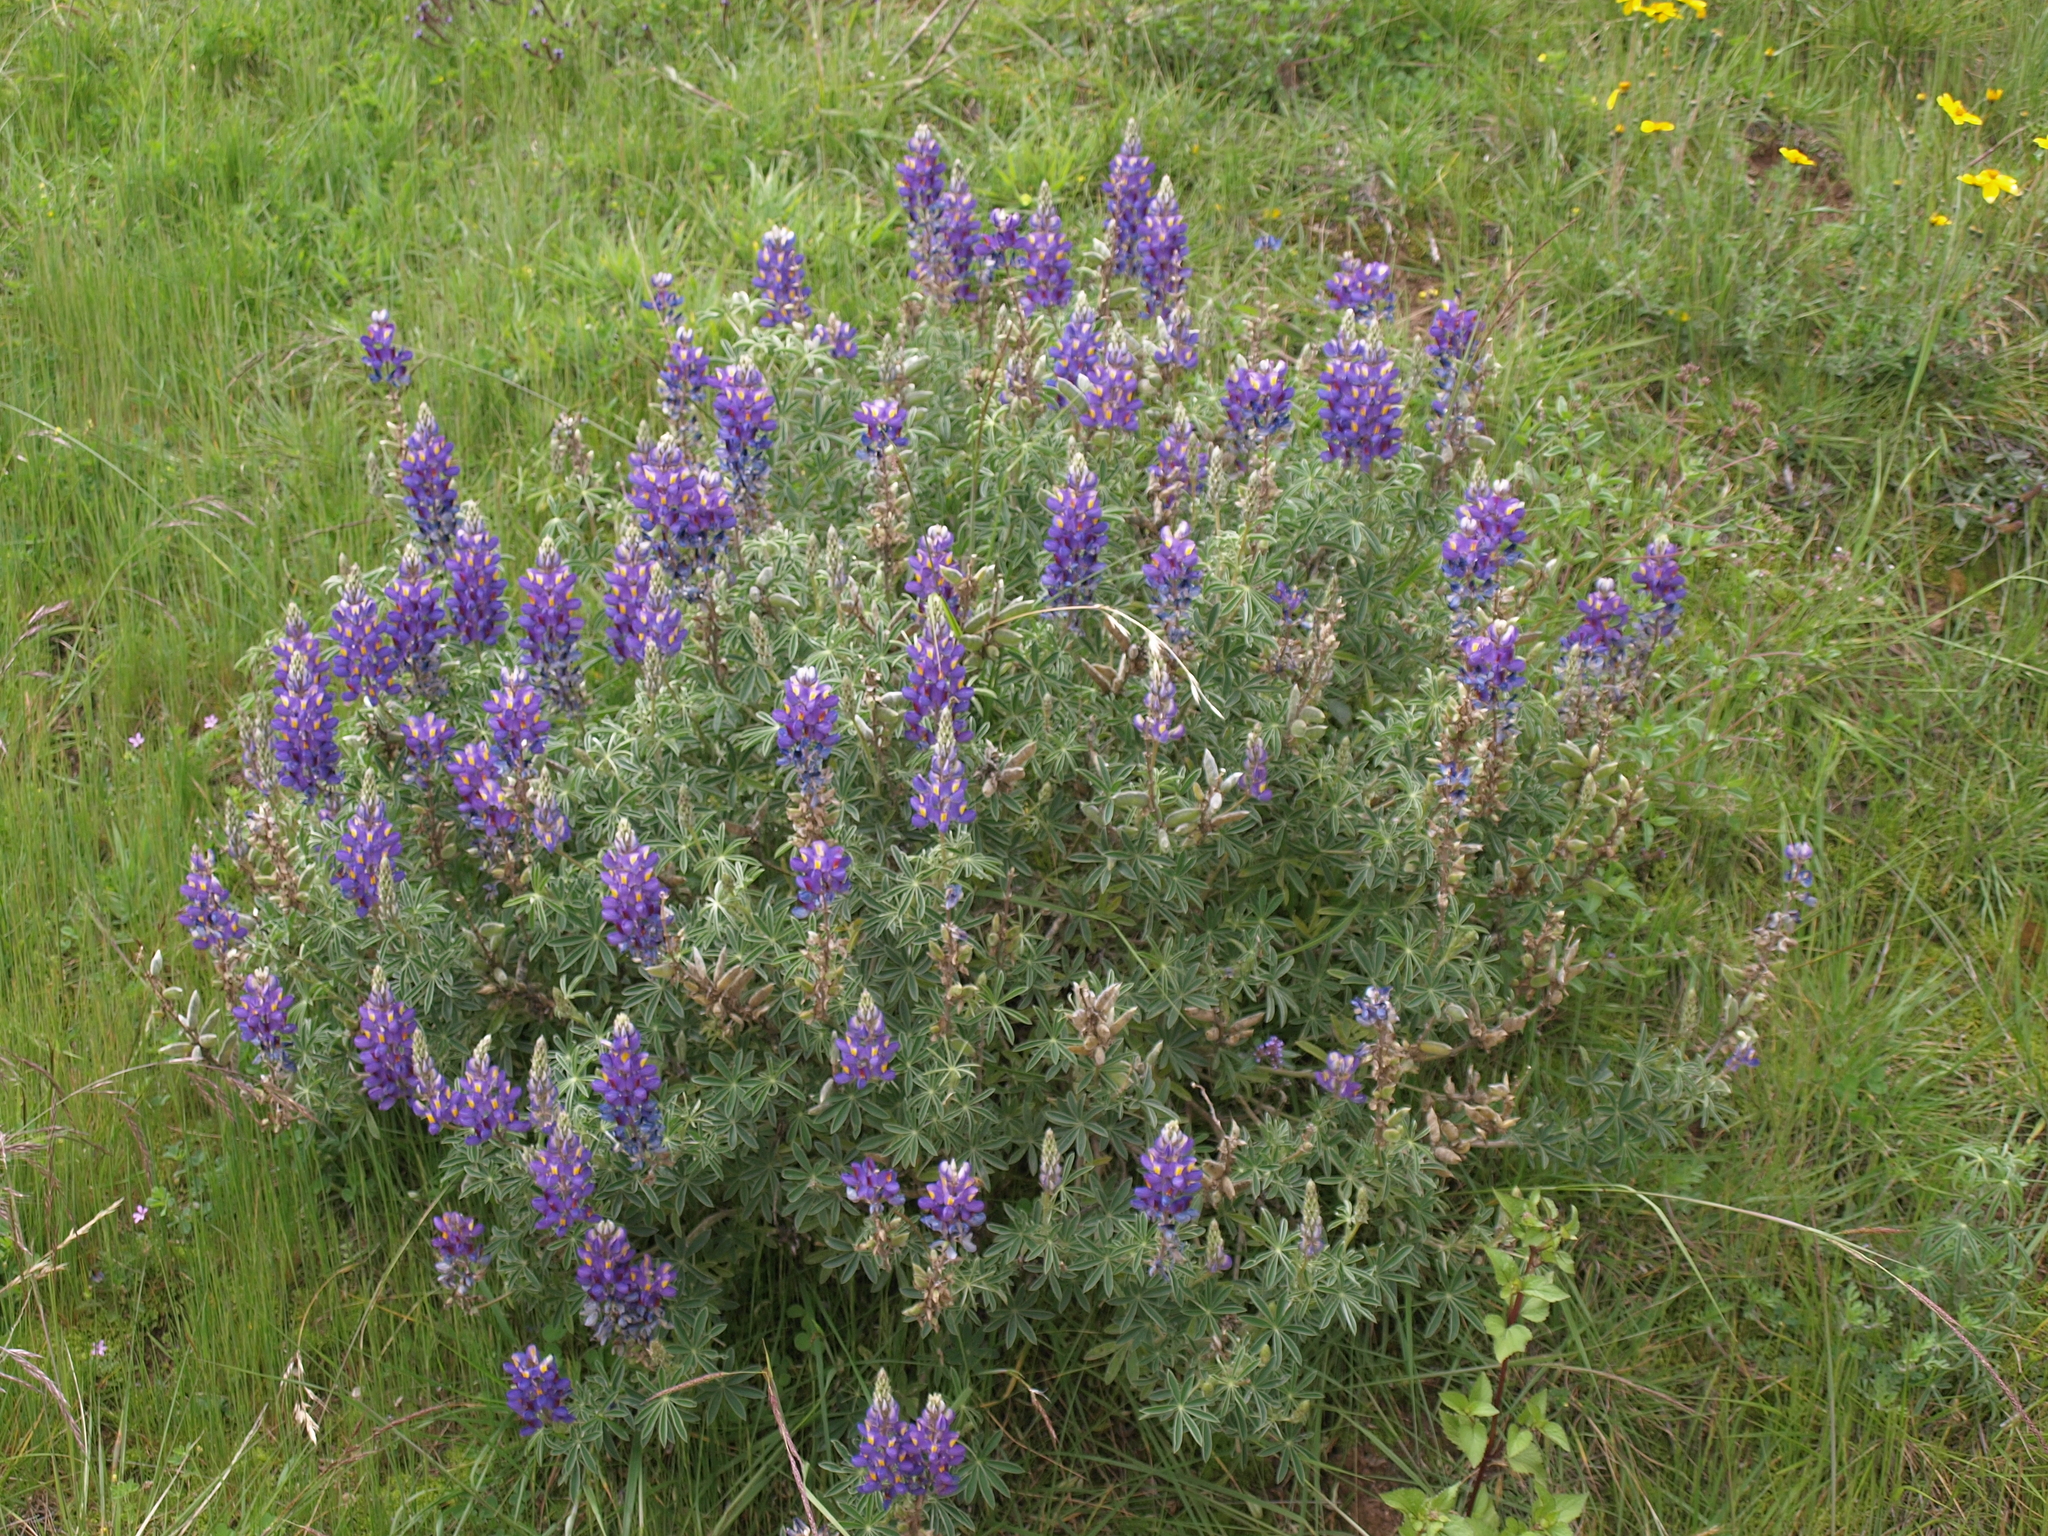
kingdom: Plantae
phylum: Tracheophyta
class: Magnoliopsida
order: Fabales
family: Fabaceae
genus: Lupinus
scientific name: Lupinus paniculatus
